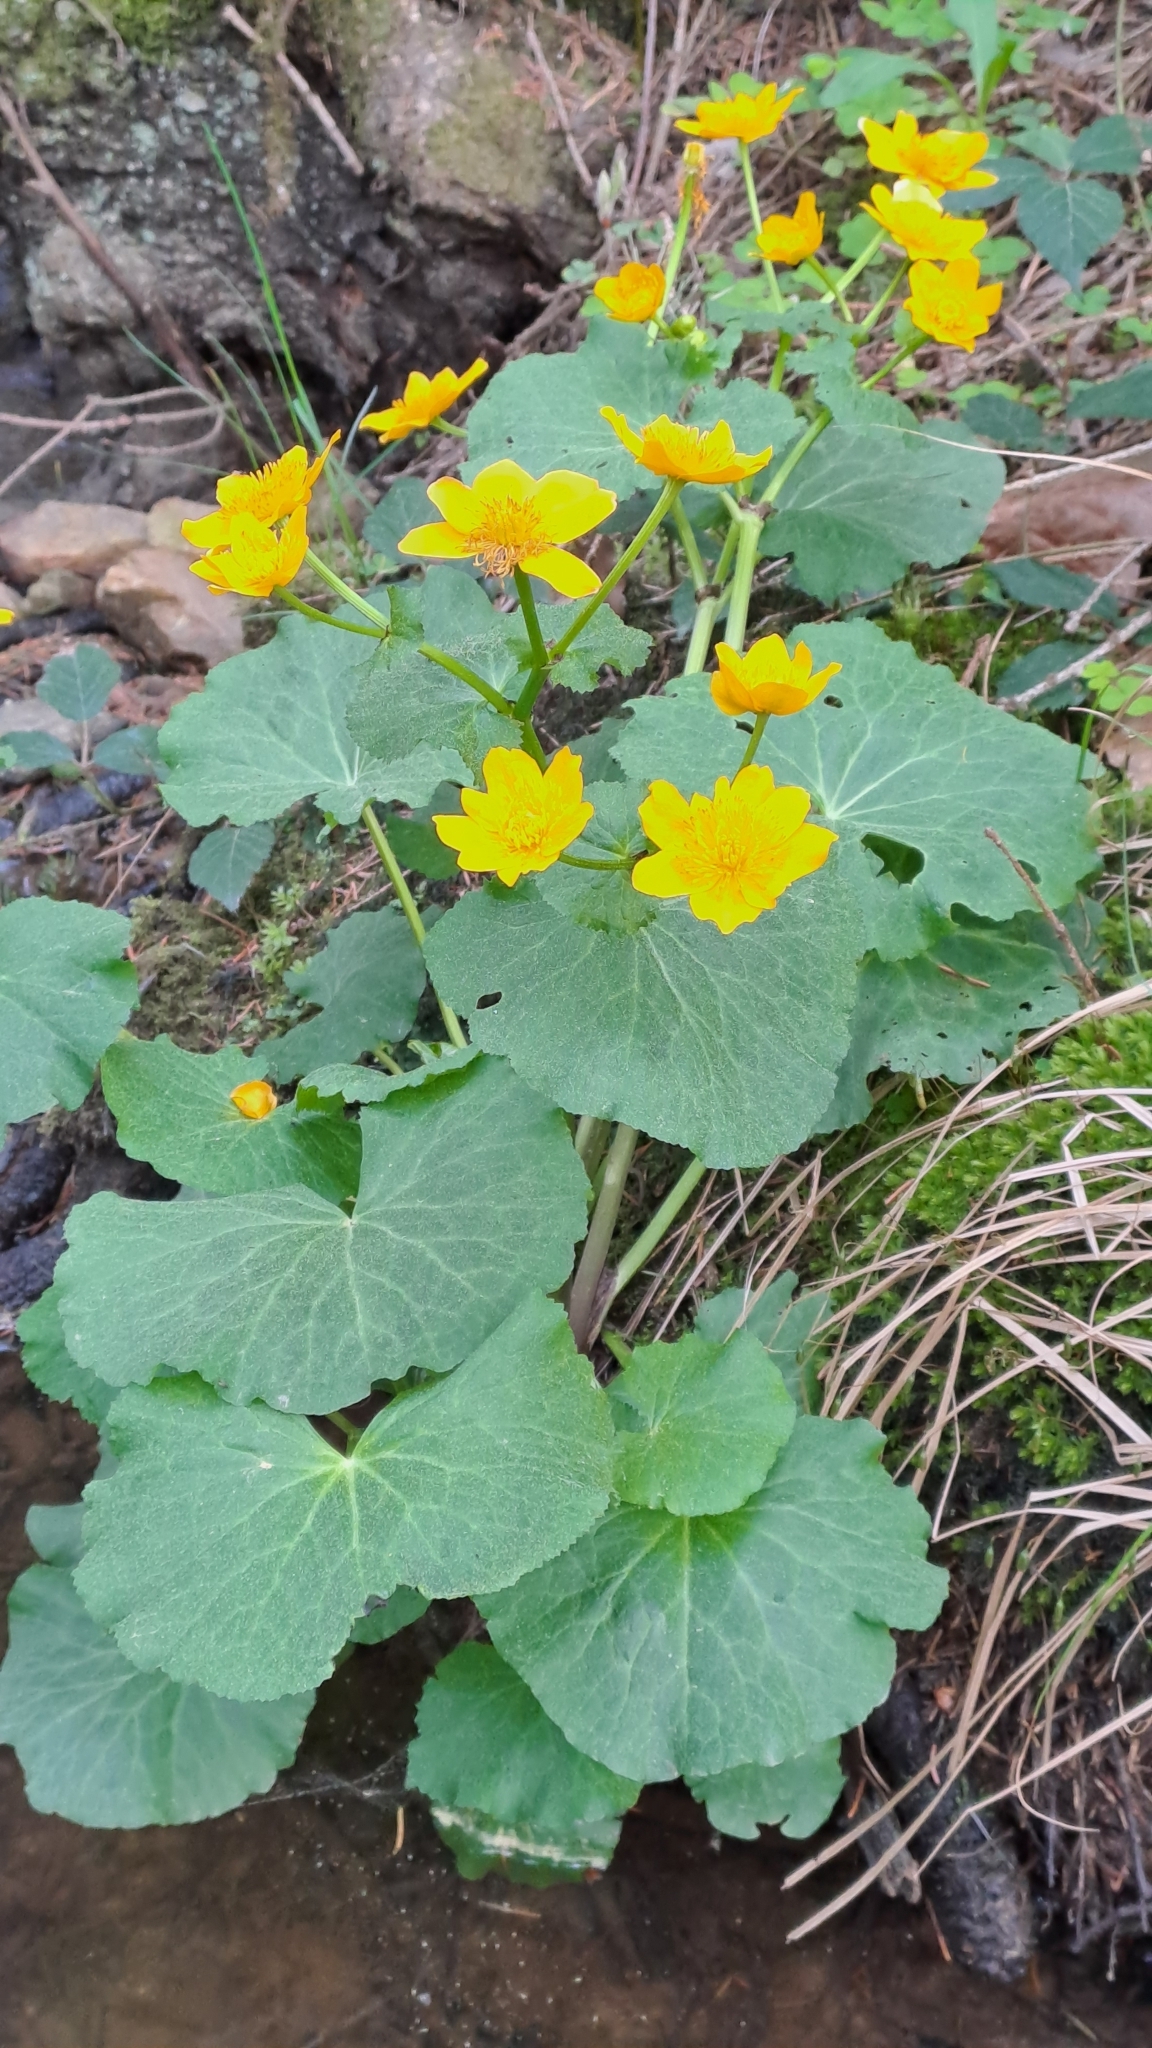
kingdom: Plantae
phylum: Tracheophyta
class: Magnoliopsida
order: Ranunculales
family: Ranunculaceae
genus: Caltha
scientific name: Caltha palustris
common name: Marsh marigold
